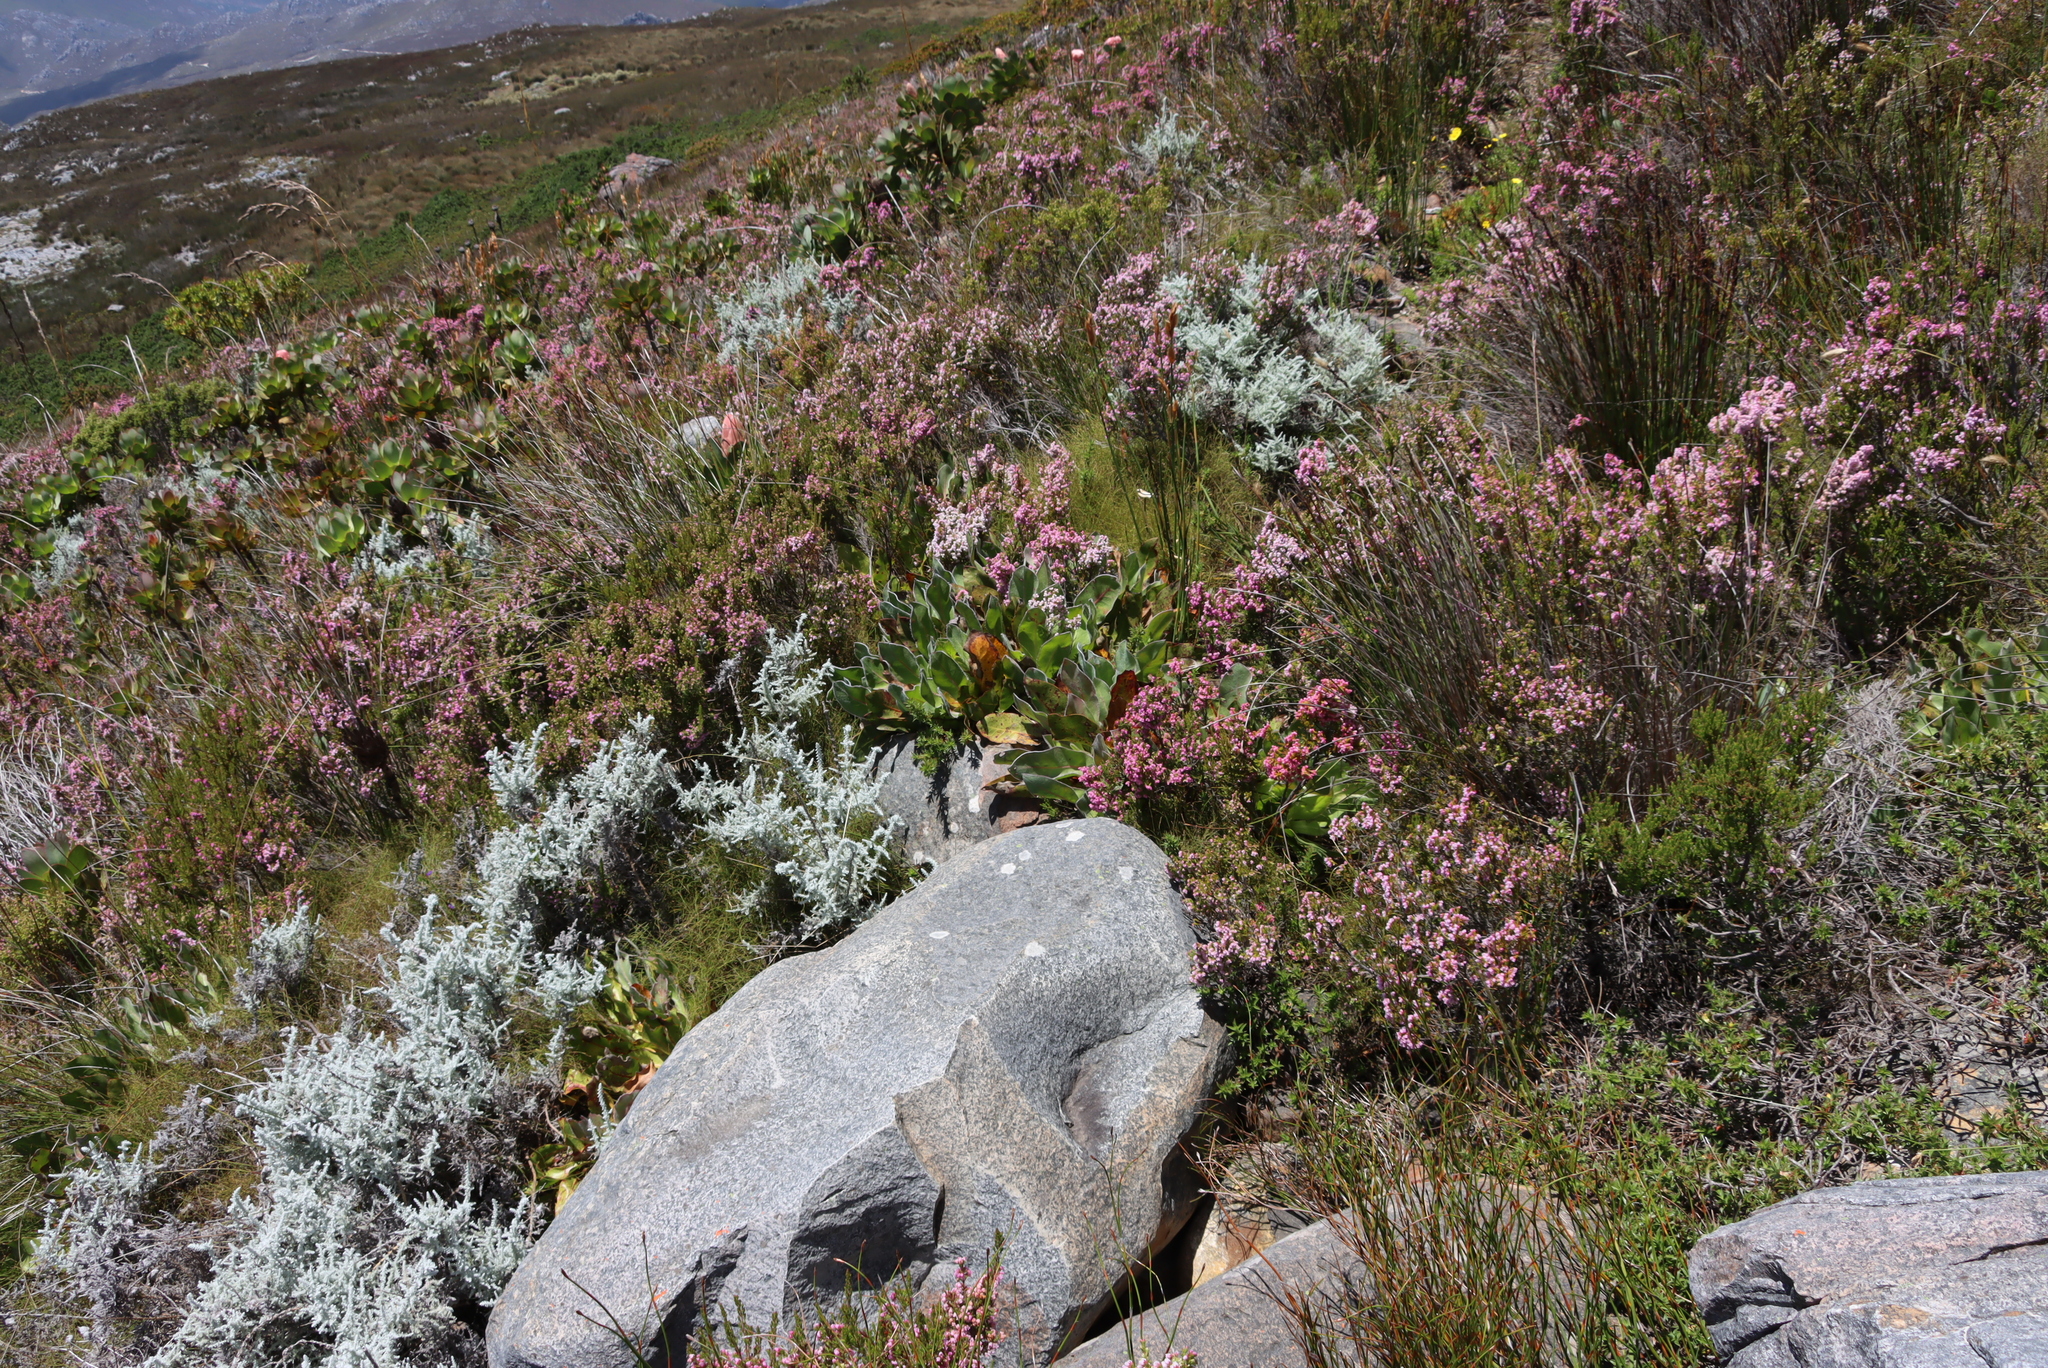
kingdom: Plantae
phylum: Tracheophyta
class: Magnoliopsida
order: Proteales
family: Proteaceae
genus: Protea
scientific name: Protea caespitosa
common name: Bishop sugarbush
